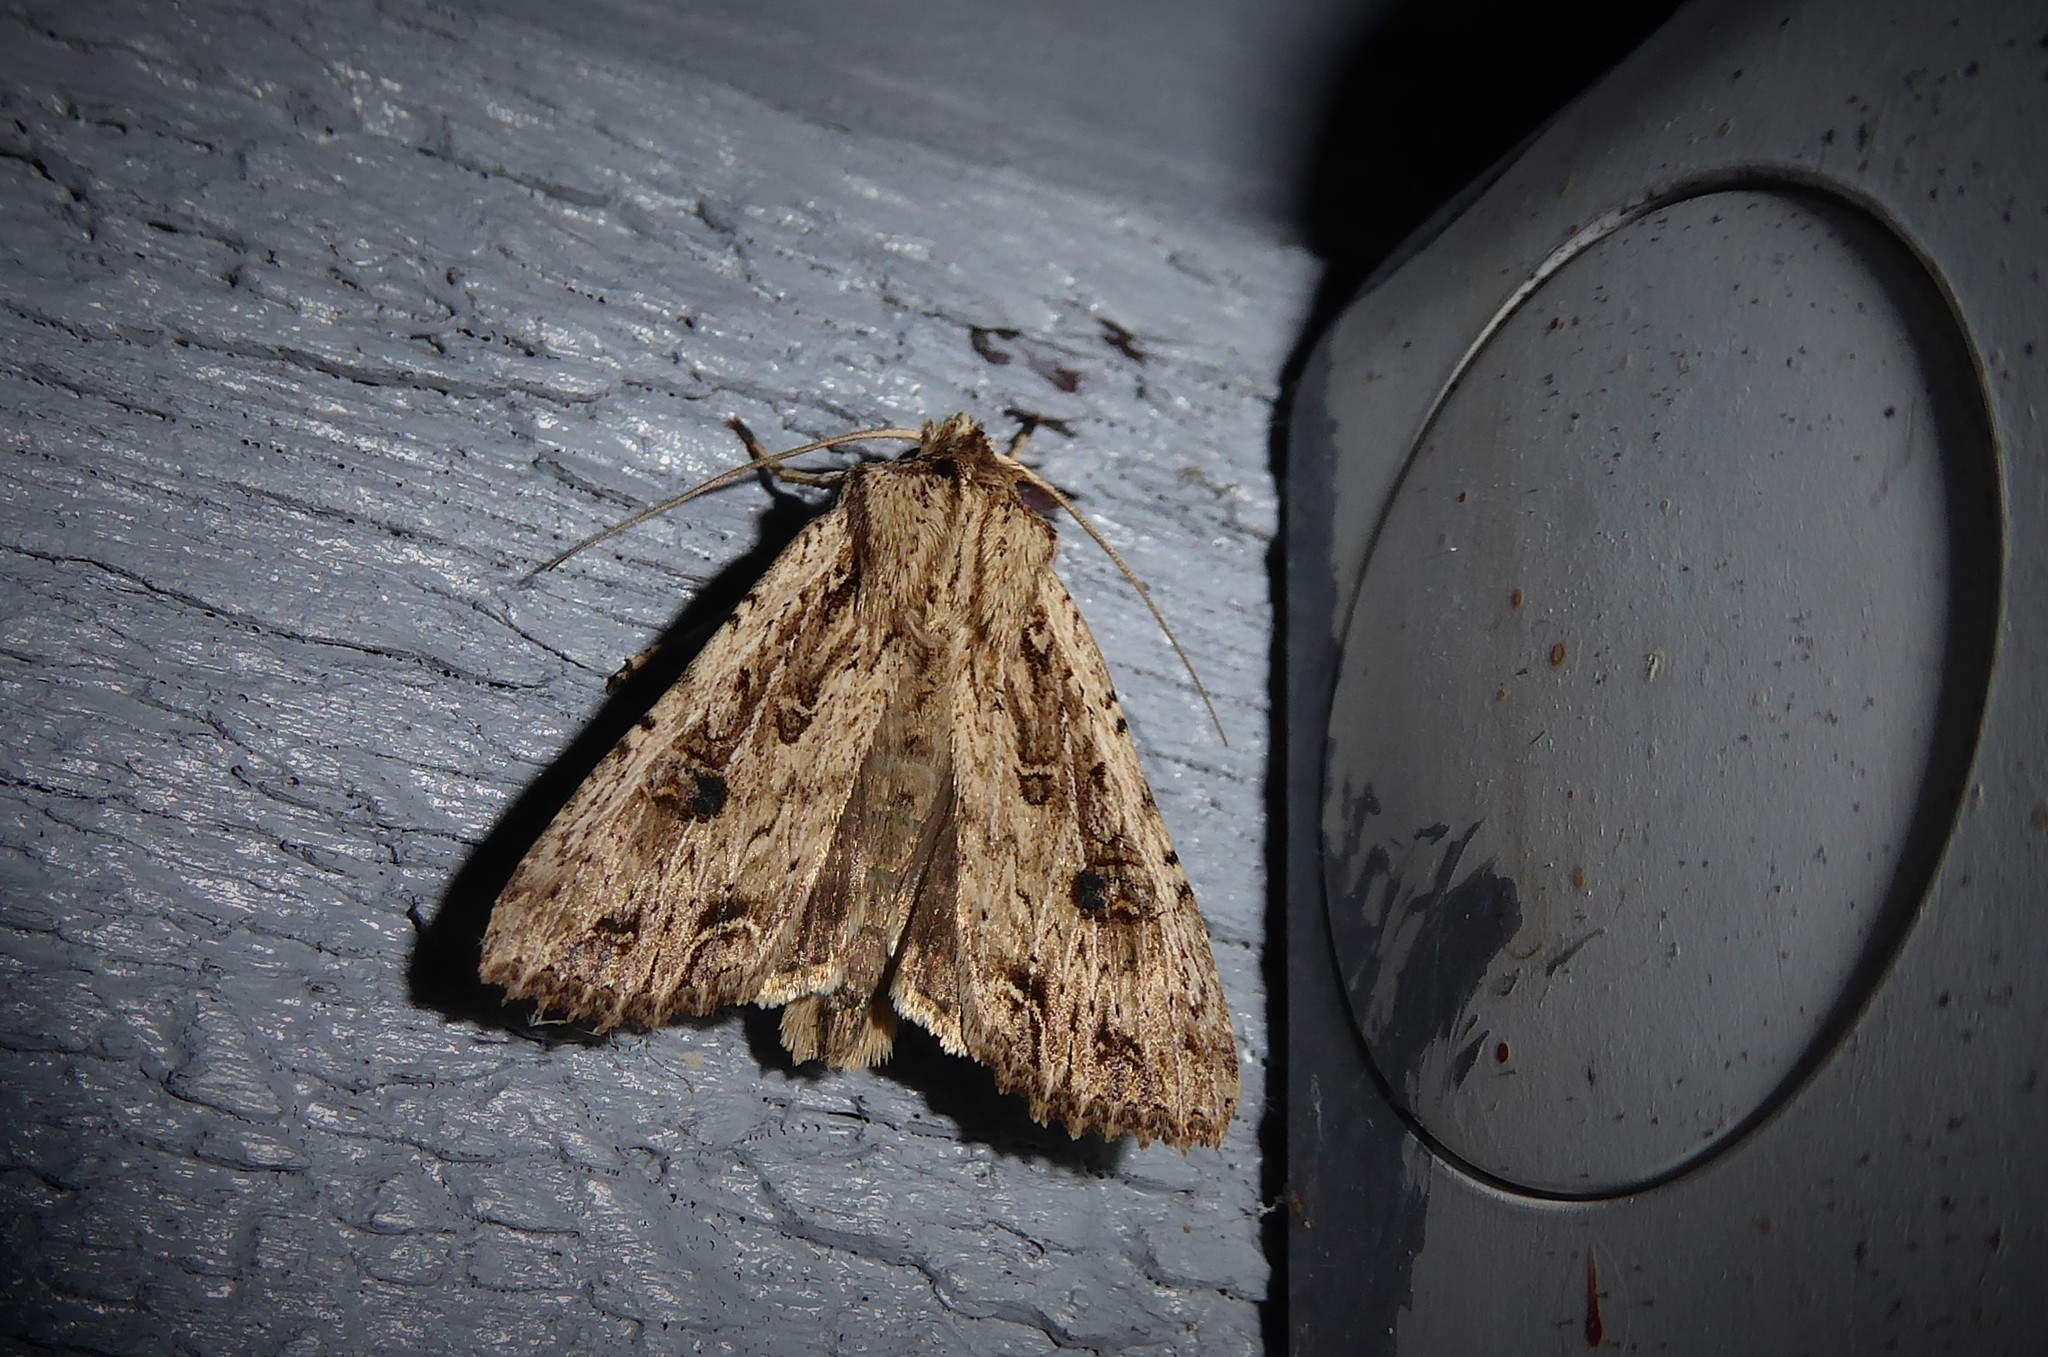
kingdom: Animalia
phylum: Arthropoda
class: Insecta
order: Lepidoptera
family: Noctuidae
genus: Ichneutica
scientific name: Ichneutica lignana
